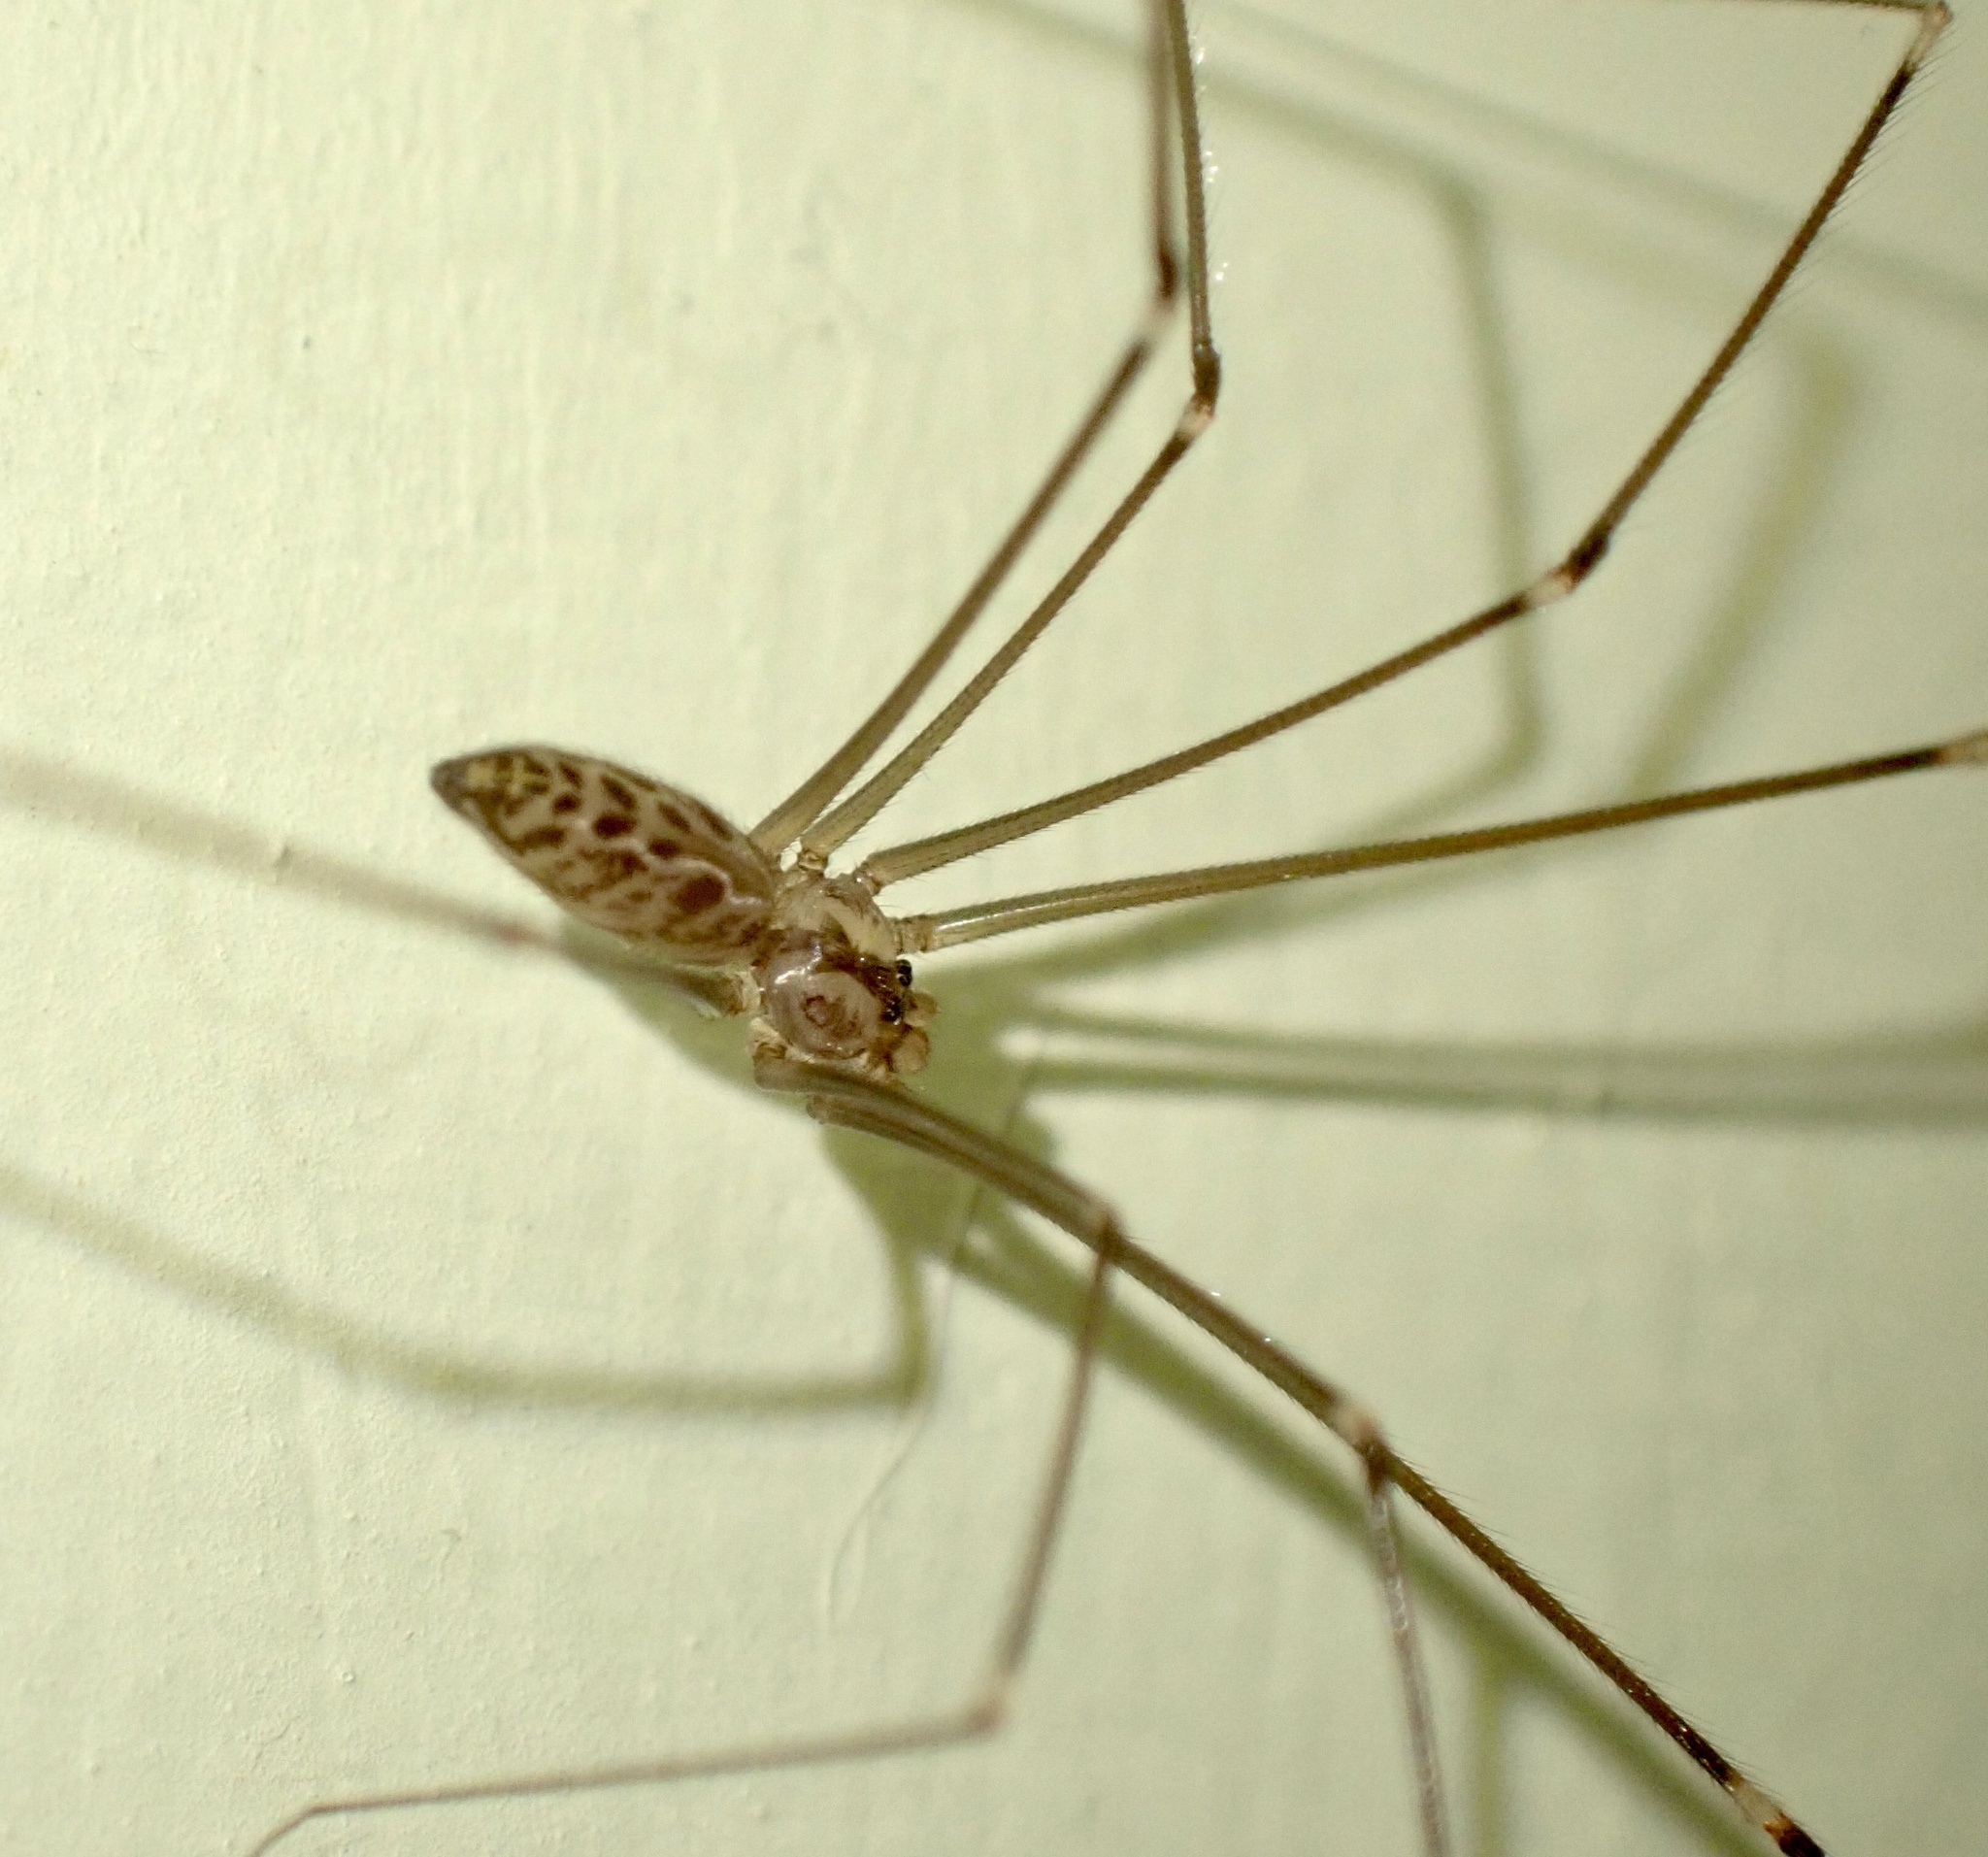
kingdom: Animalia
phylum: Arthropoda
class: Arachnida
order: Araneae
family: Pholcidae
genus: Smeringopus
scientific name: Smeringopus natalensis
